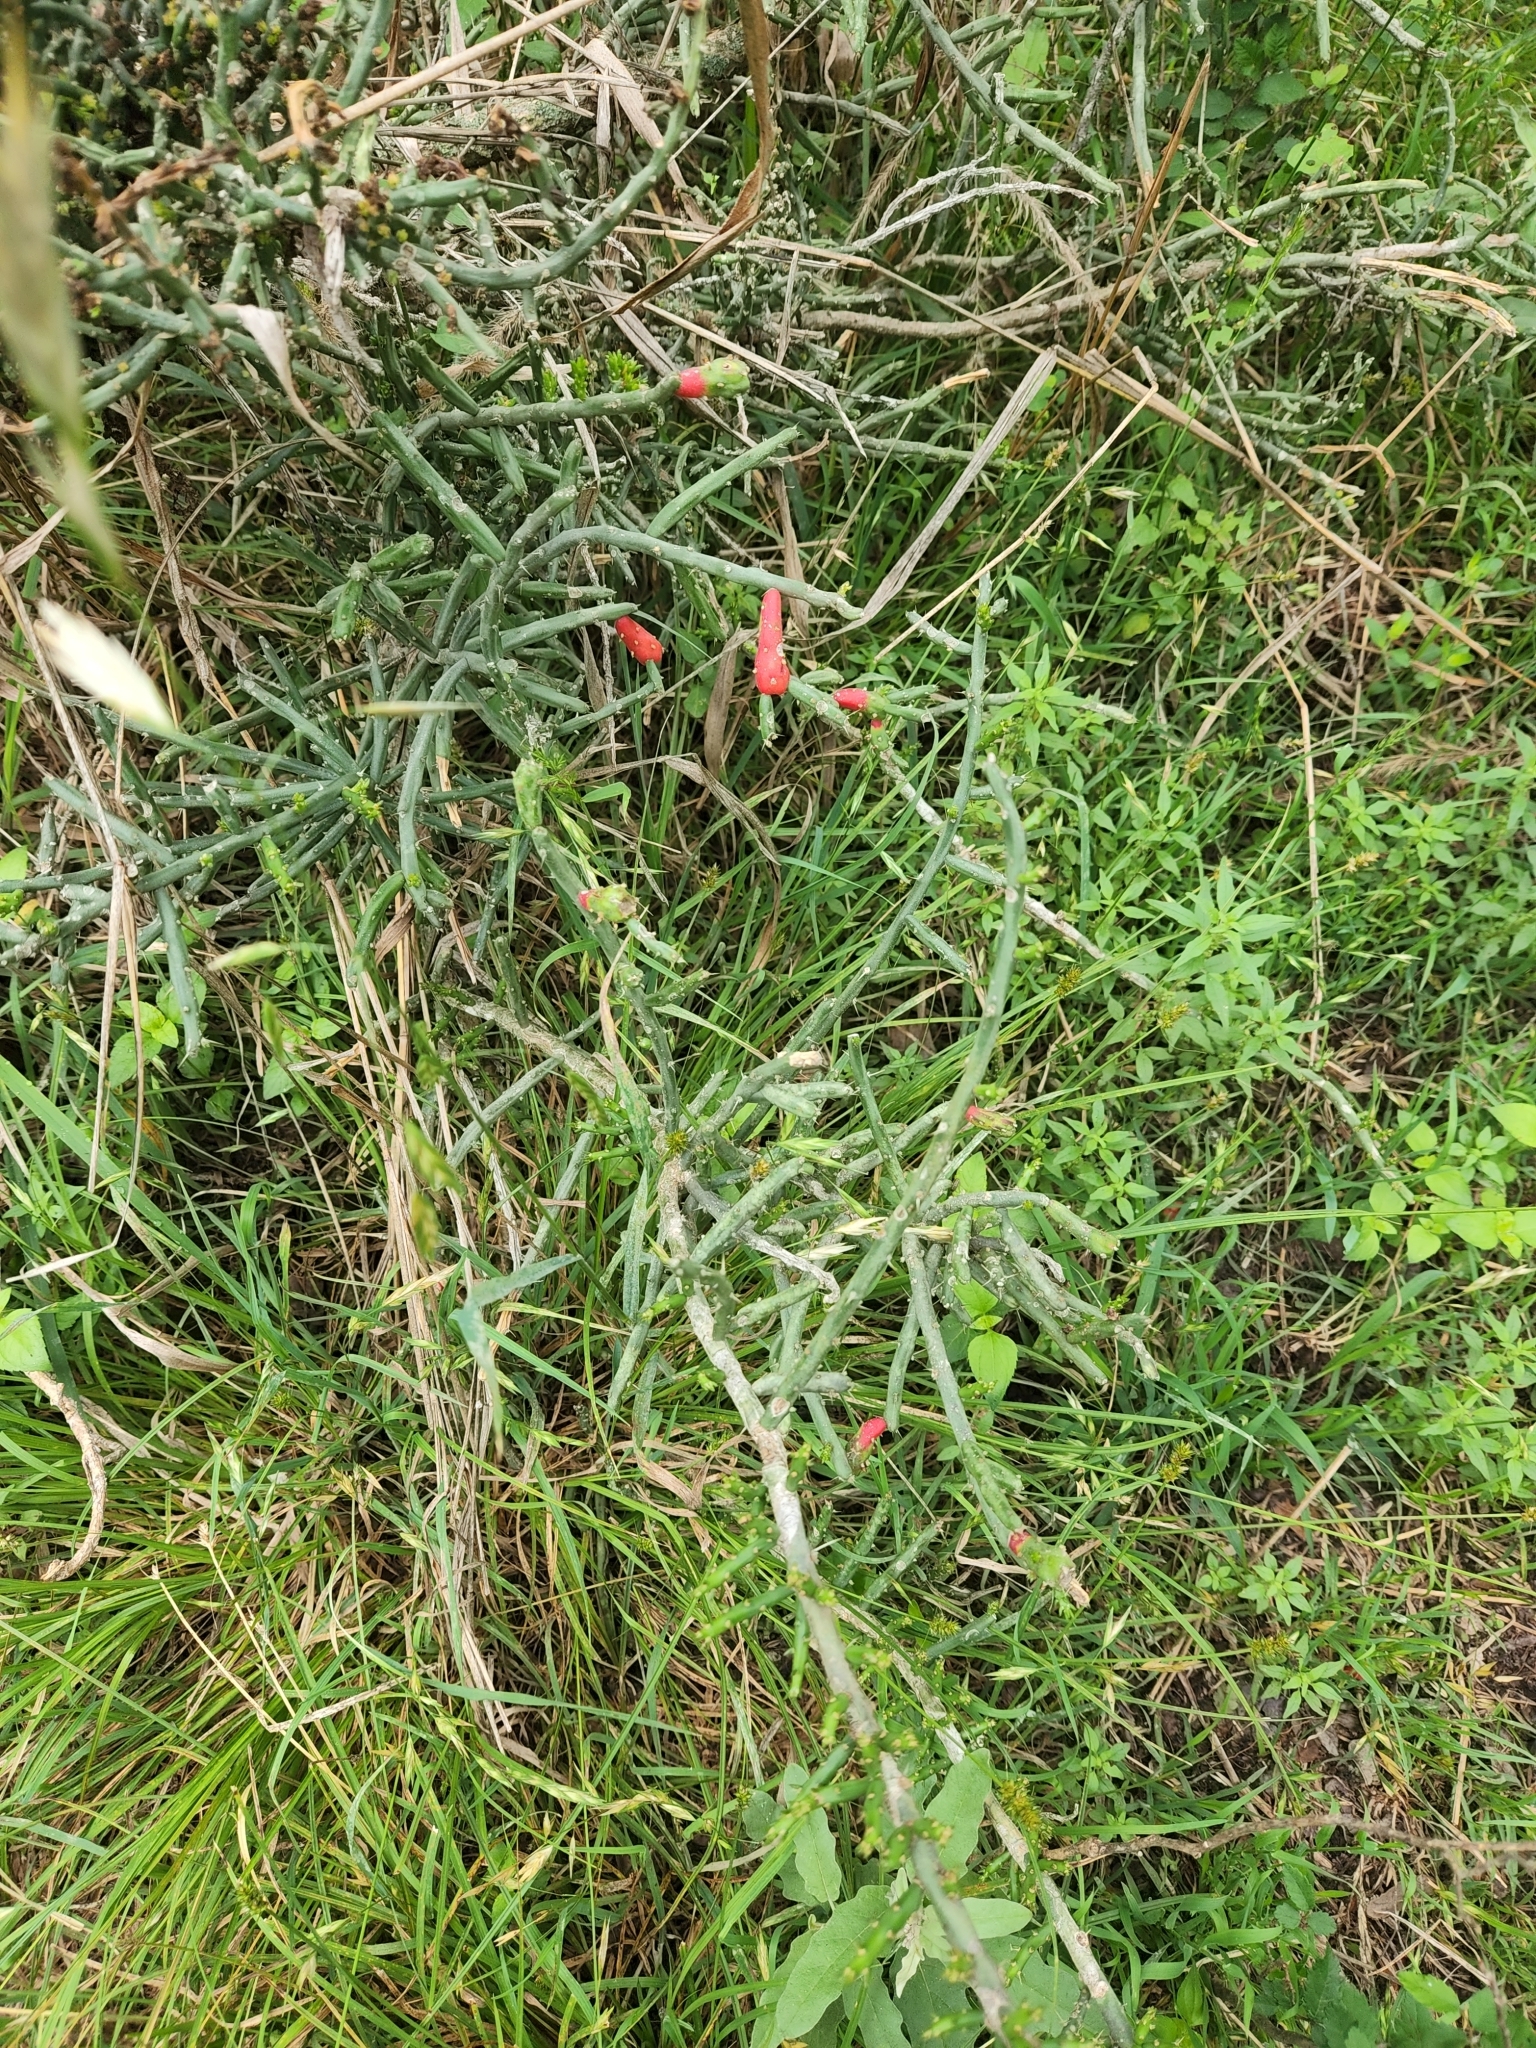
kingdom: Plantae
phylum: Tracheophyta
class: Magnoliopsida
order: Caryophyllales
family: Cactaceae
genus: Cylindropuntia
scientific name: Cylindropuntia leptocaulis
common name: Christmas cactus
